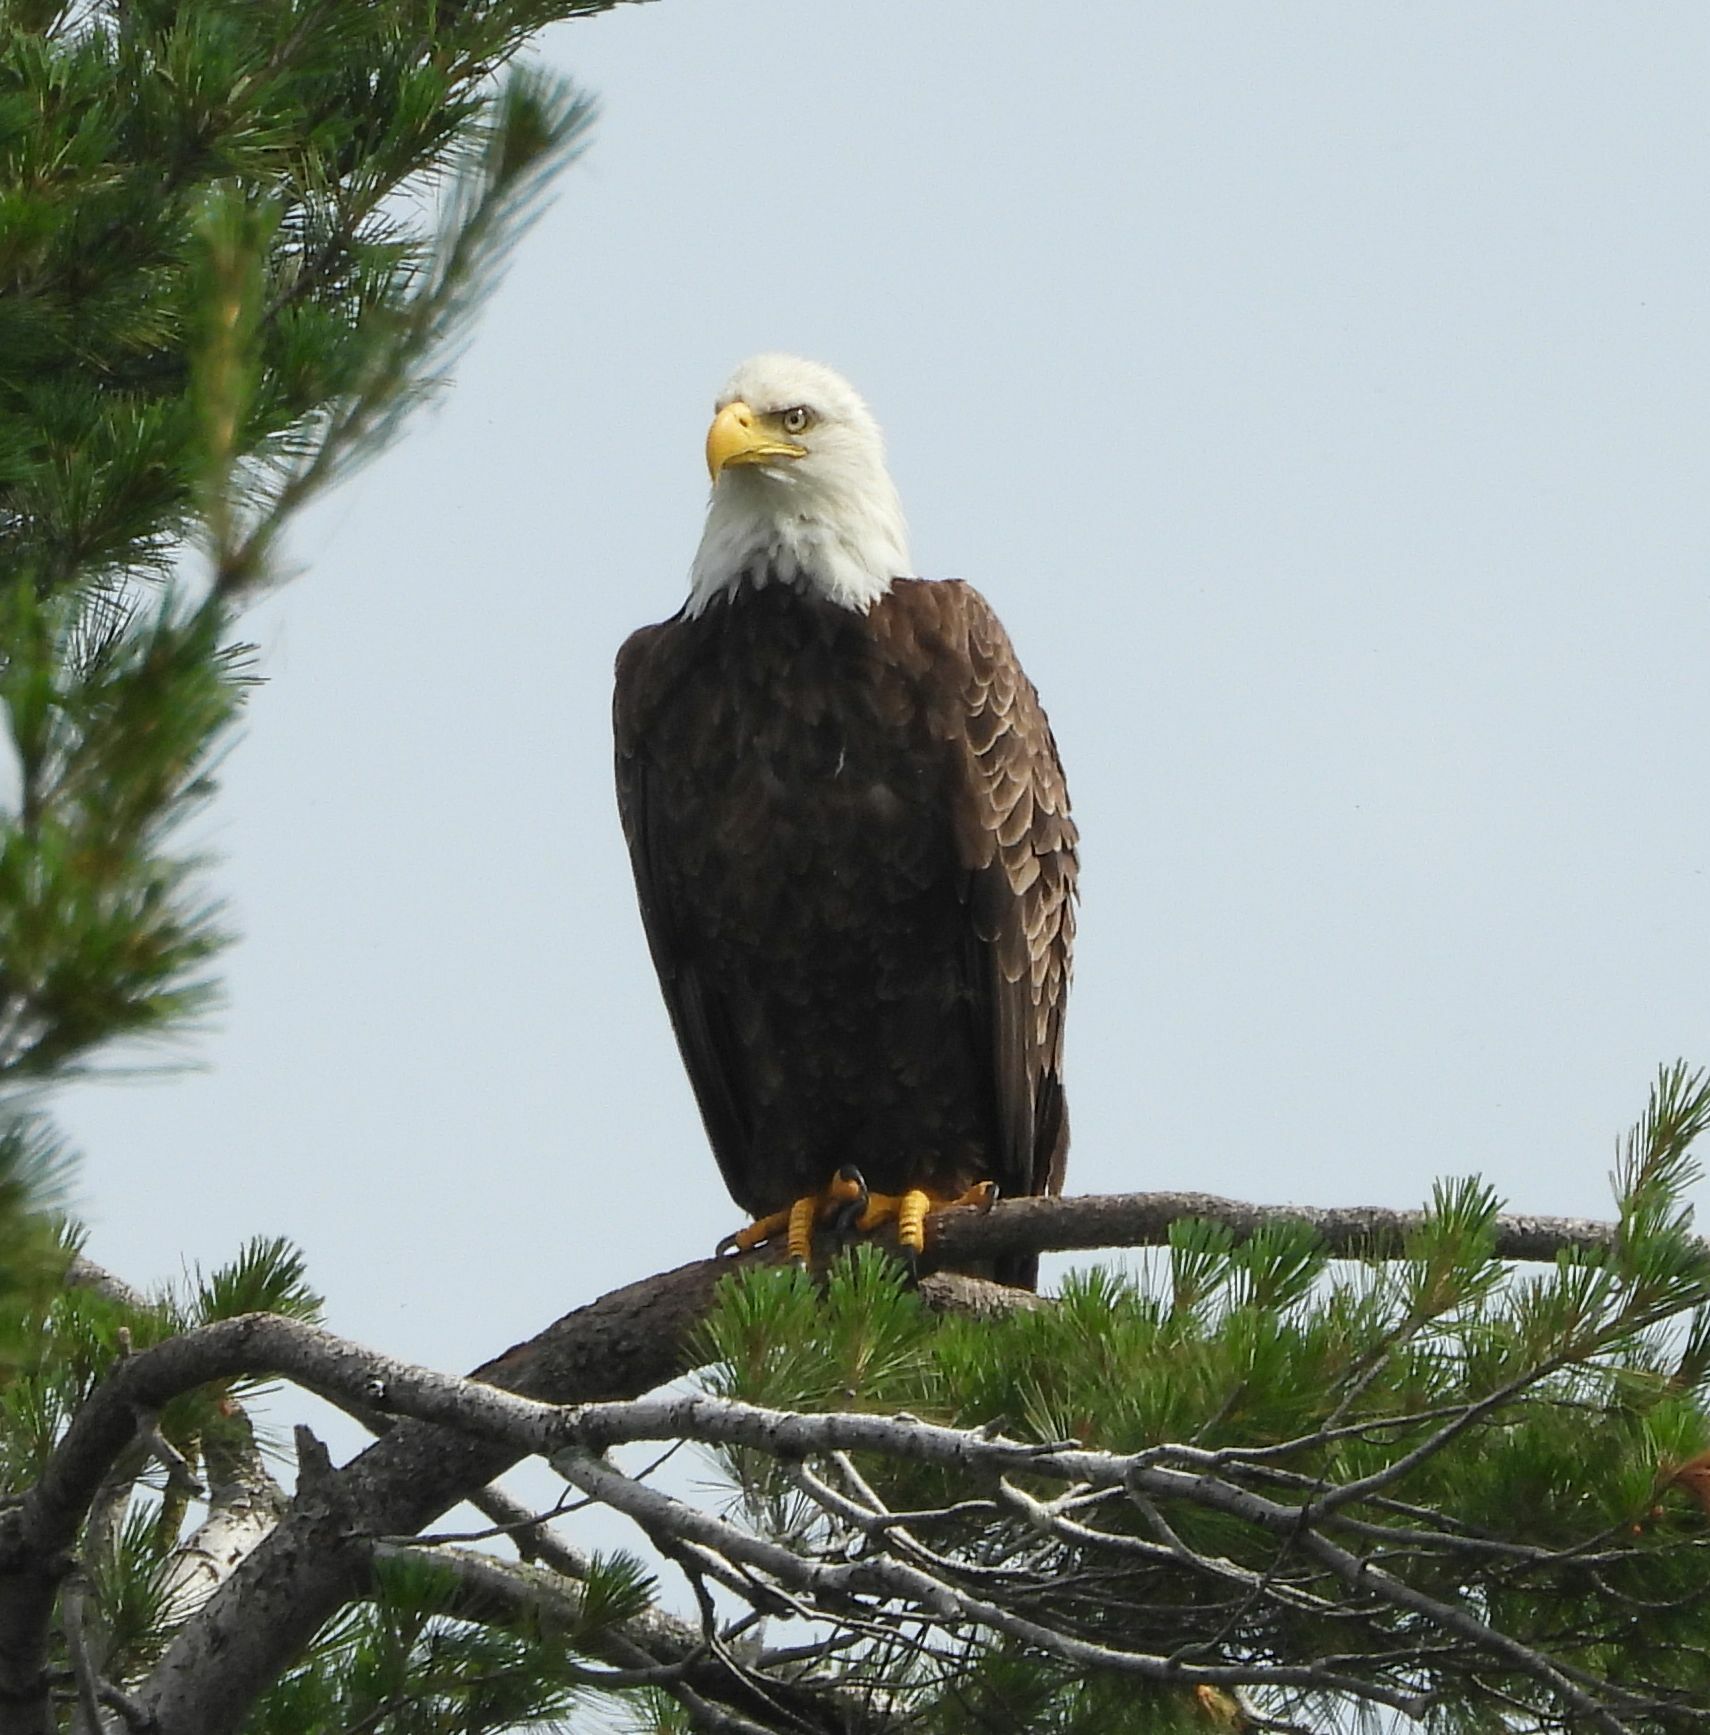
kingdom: Animalia
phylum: Chordata
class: Aves
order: Accipitriformes
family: Accipitridae
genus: Haliaeetus
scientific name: Haliaeetus leucocephalus
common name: Bald eagle
